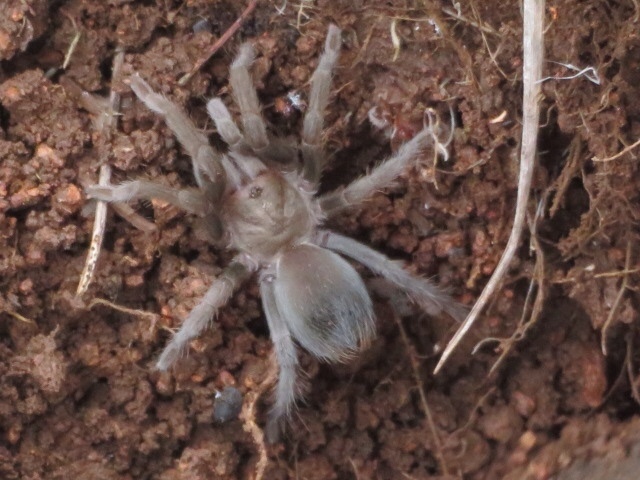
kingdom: Animalia
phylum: Arthropoda
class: Arachnida
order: Araneae
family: Theraphosidae
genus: Aphonopelma
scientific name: Aphonopelma hentzi
